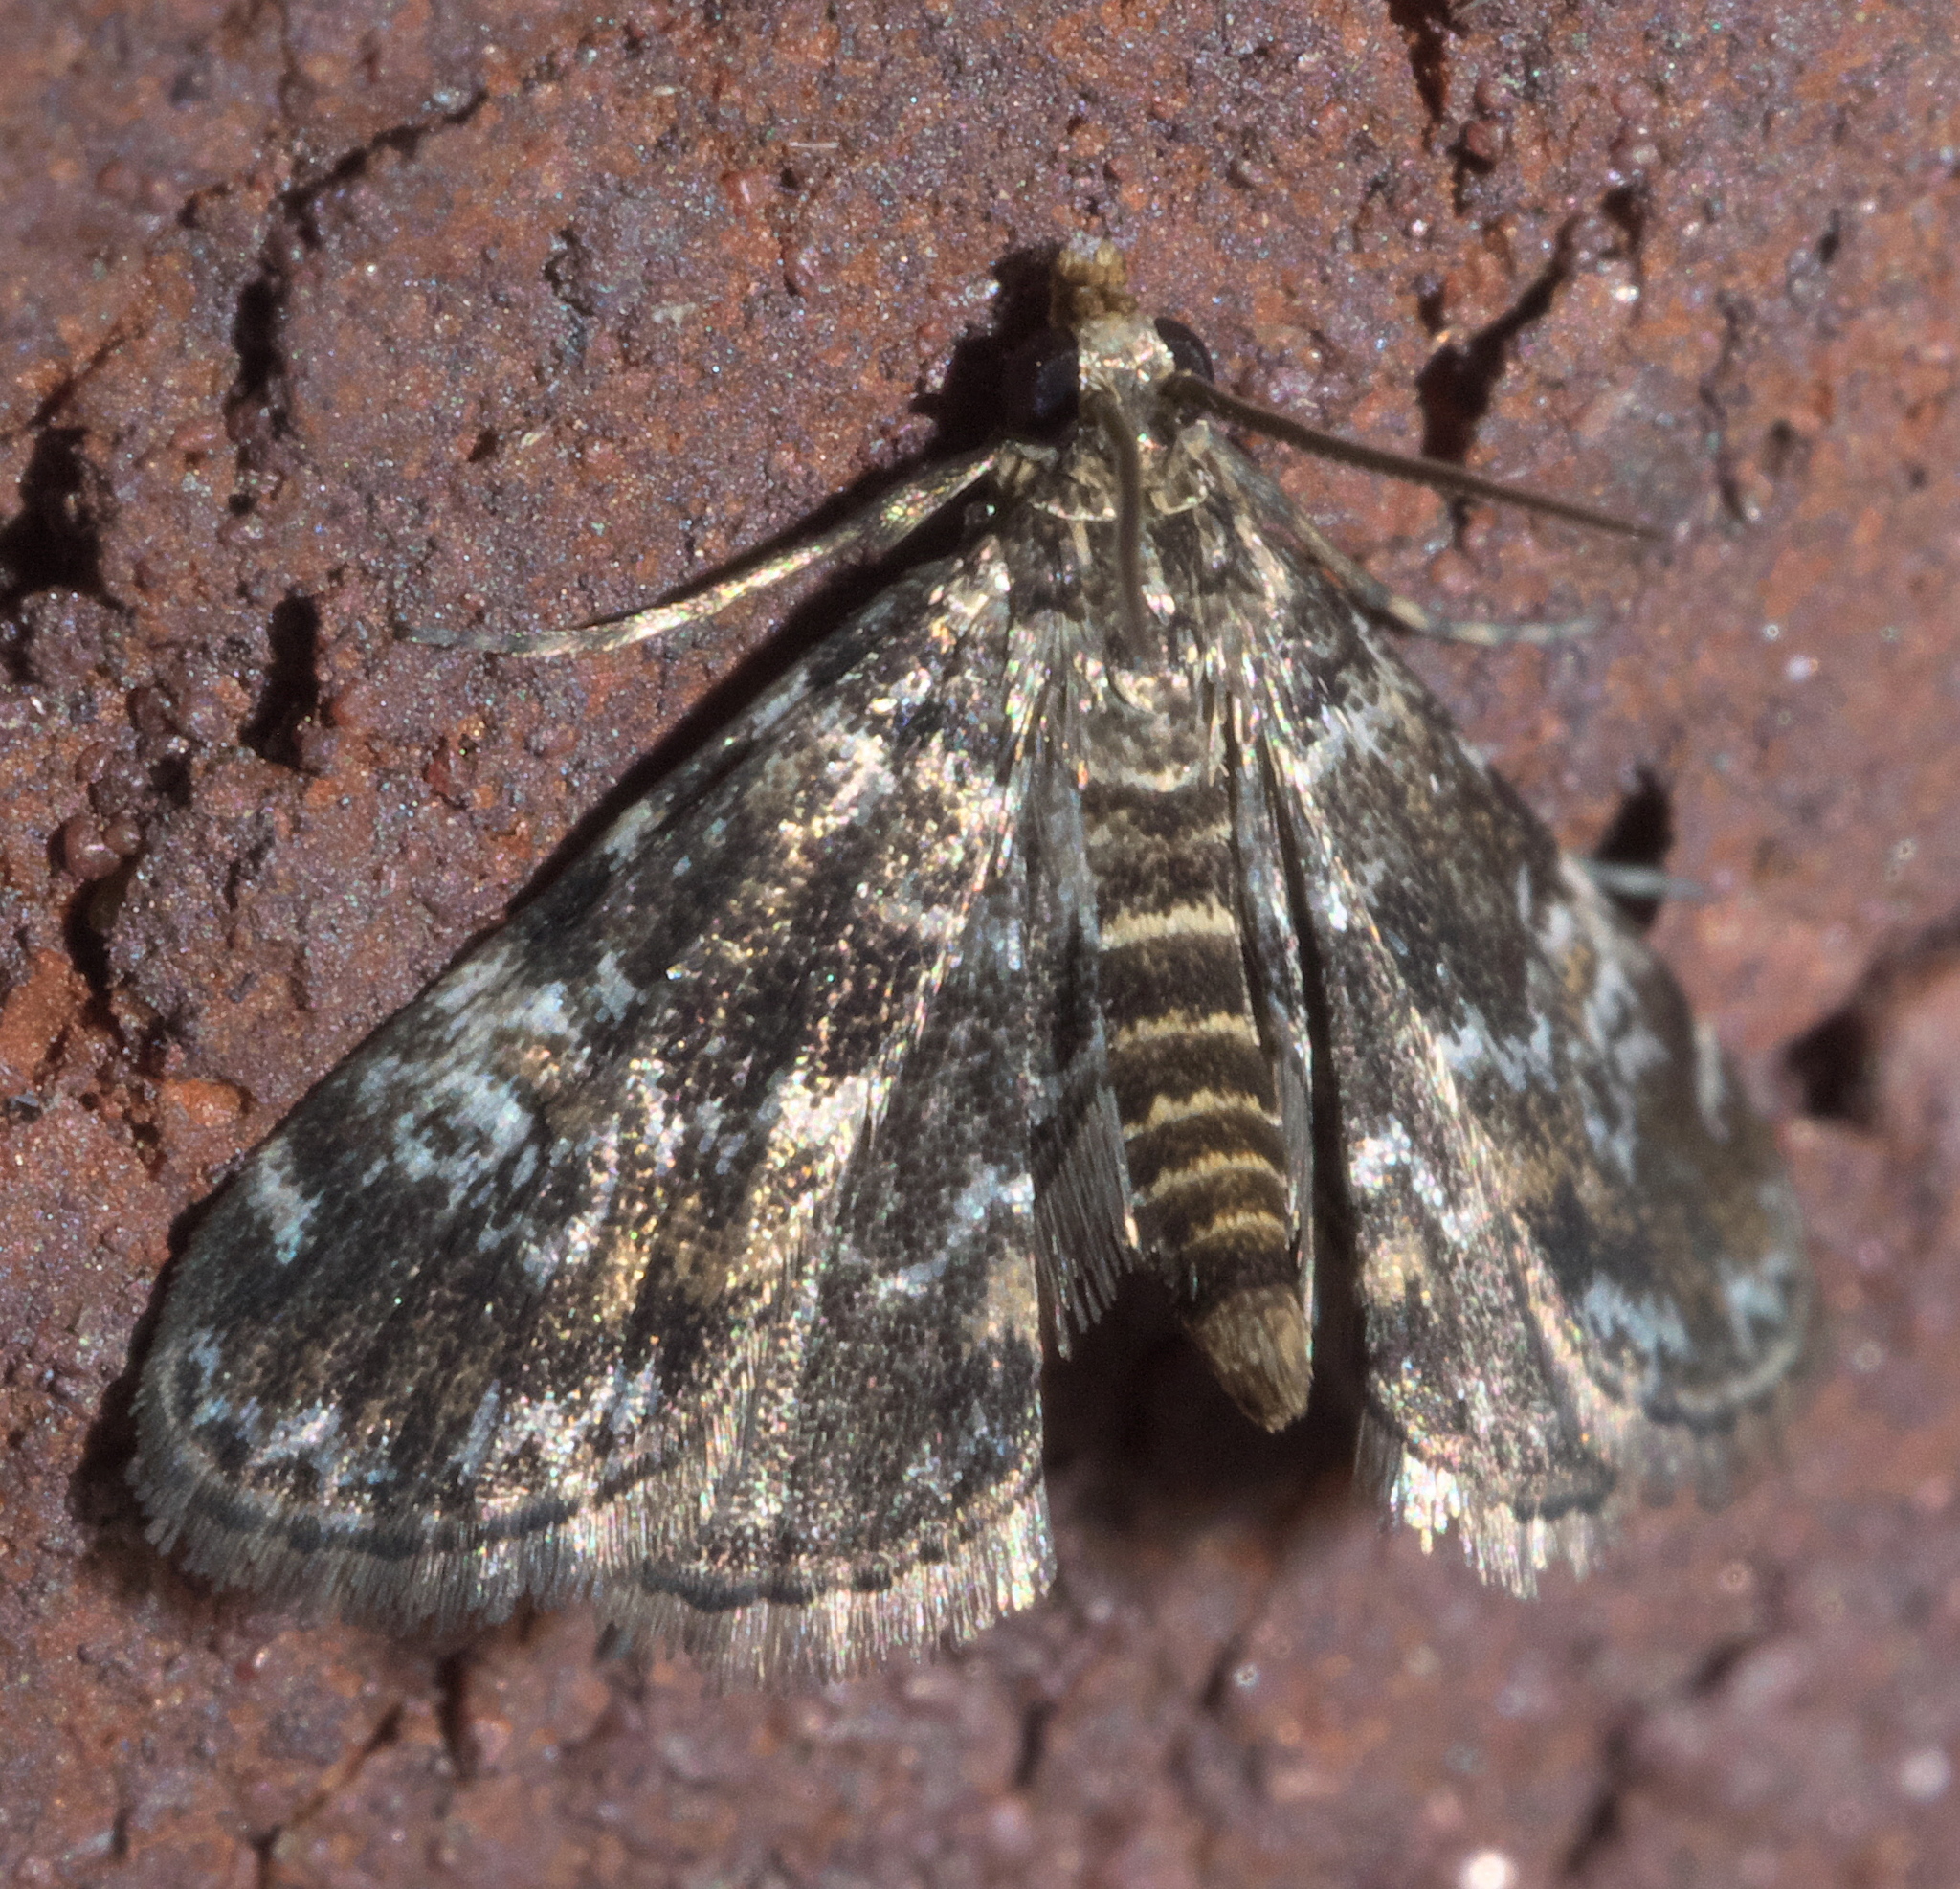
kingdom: Animalia
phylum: Arthropoda
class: Insecta
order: Lepidoptera
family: Crambidae
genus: Elophila
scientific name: Elophila obliteralis
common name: Waterlily leafcutter moth
